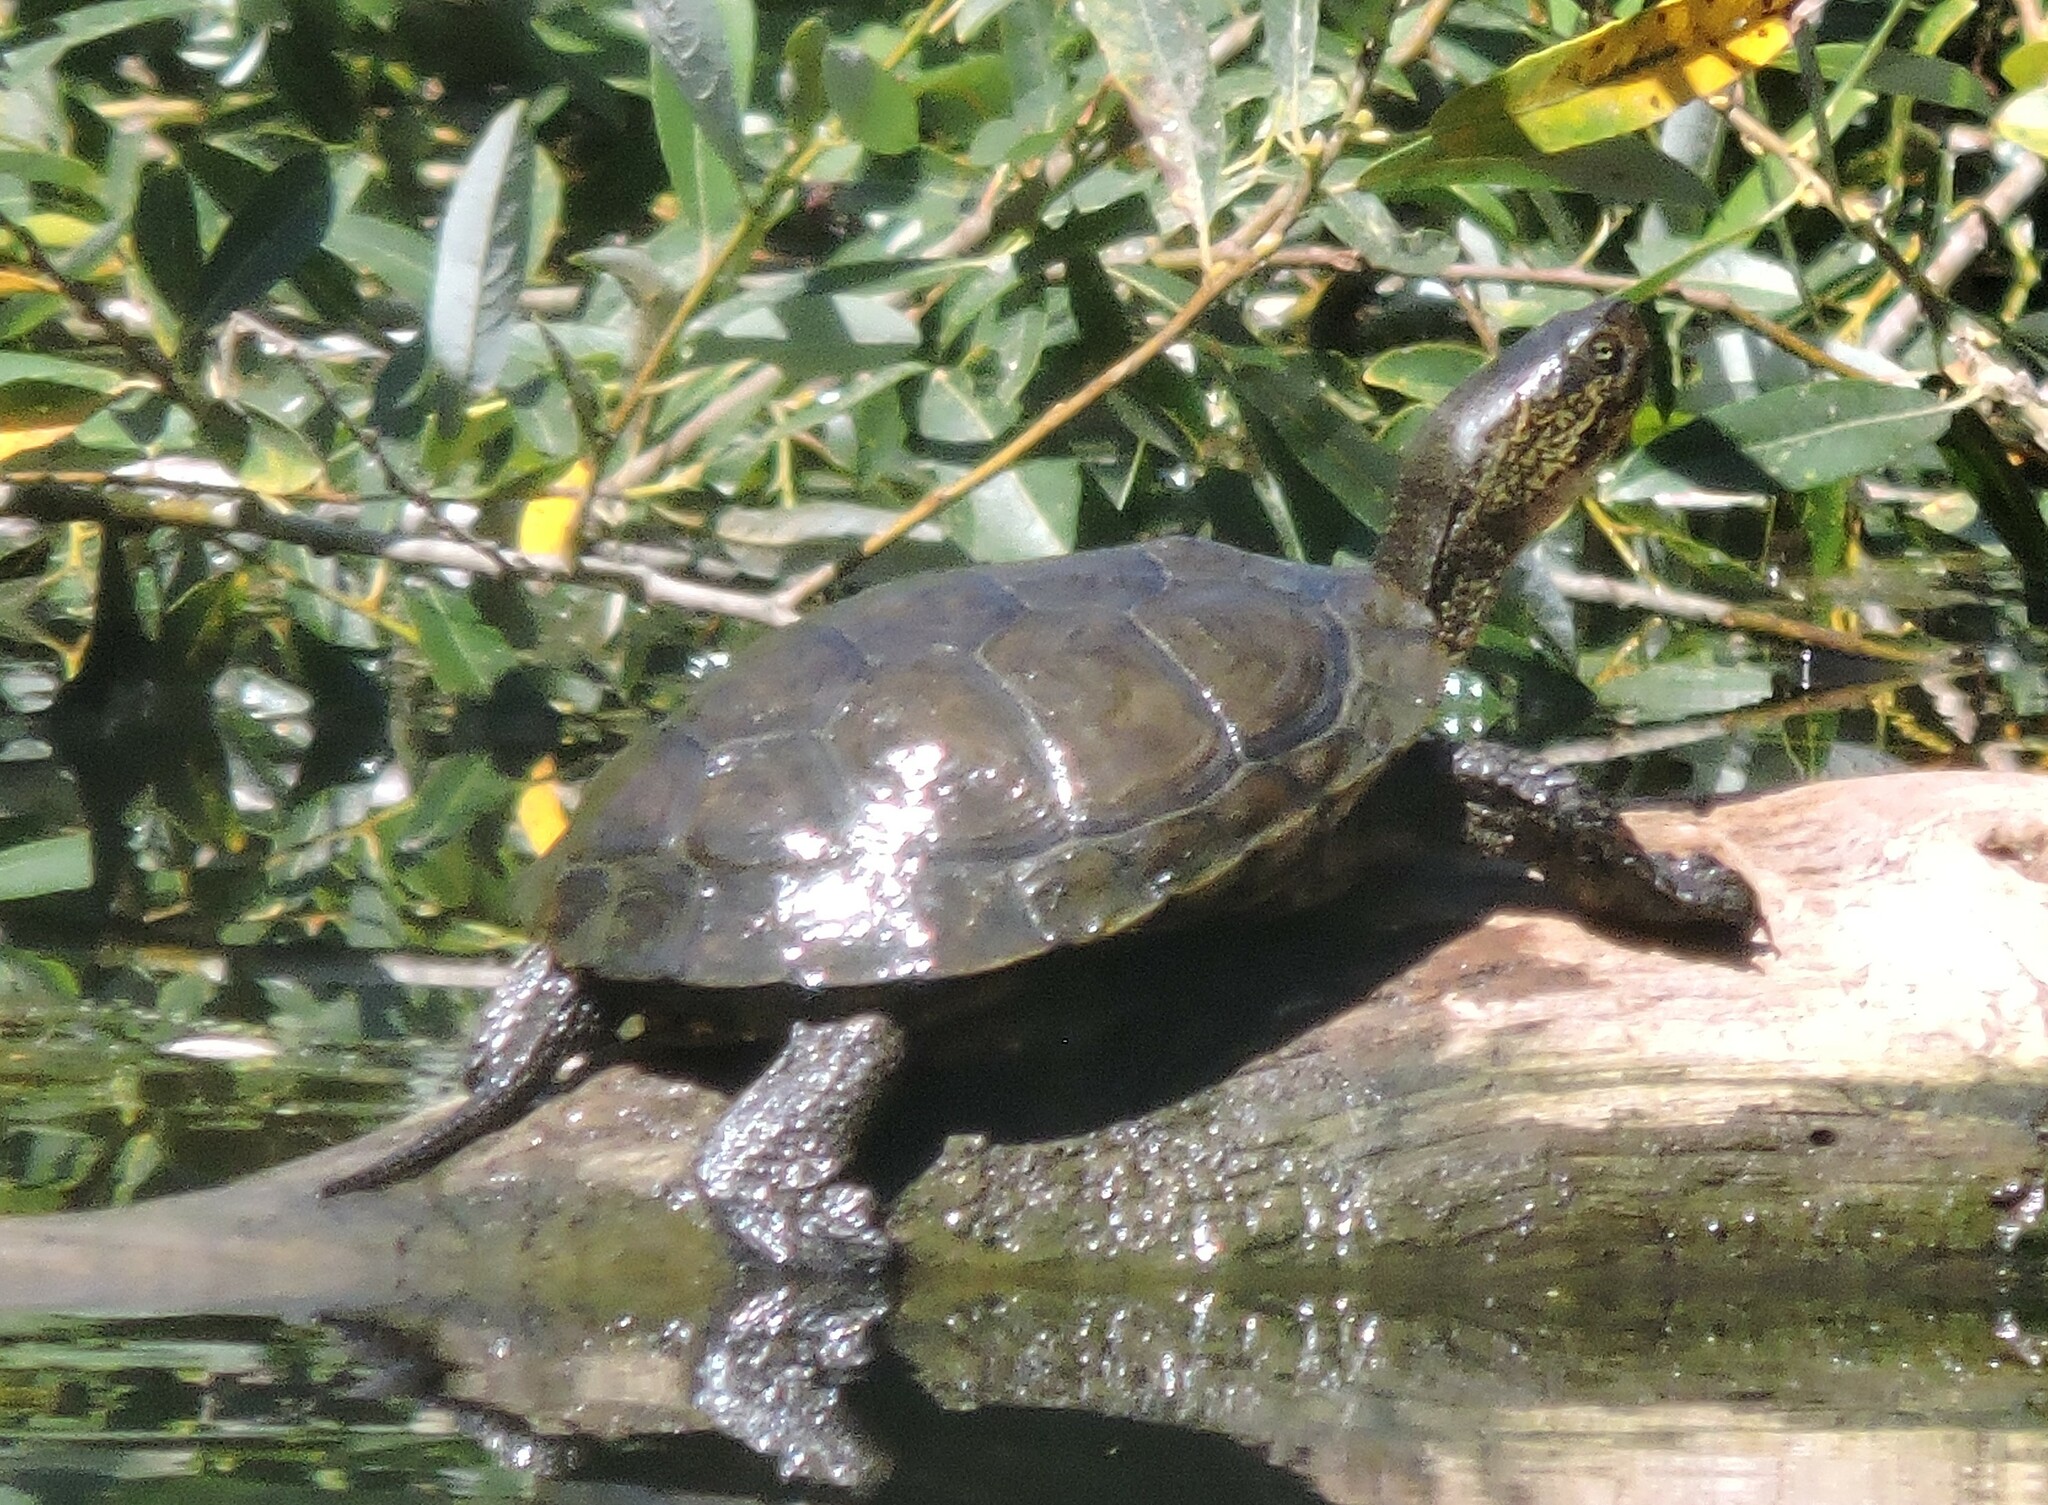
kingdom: Animalia
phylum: Chordata
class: Testudines
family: Emydidae
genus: Actinemys
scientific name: Actinemys marmorata
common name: Western pond turtle
